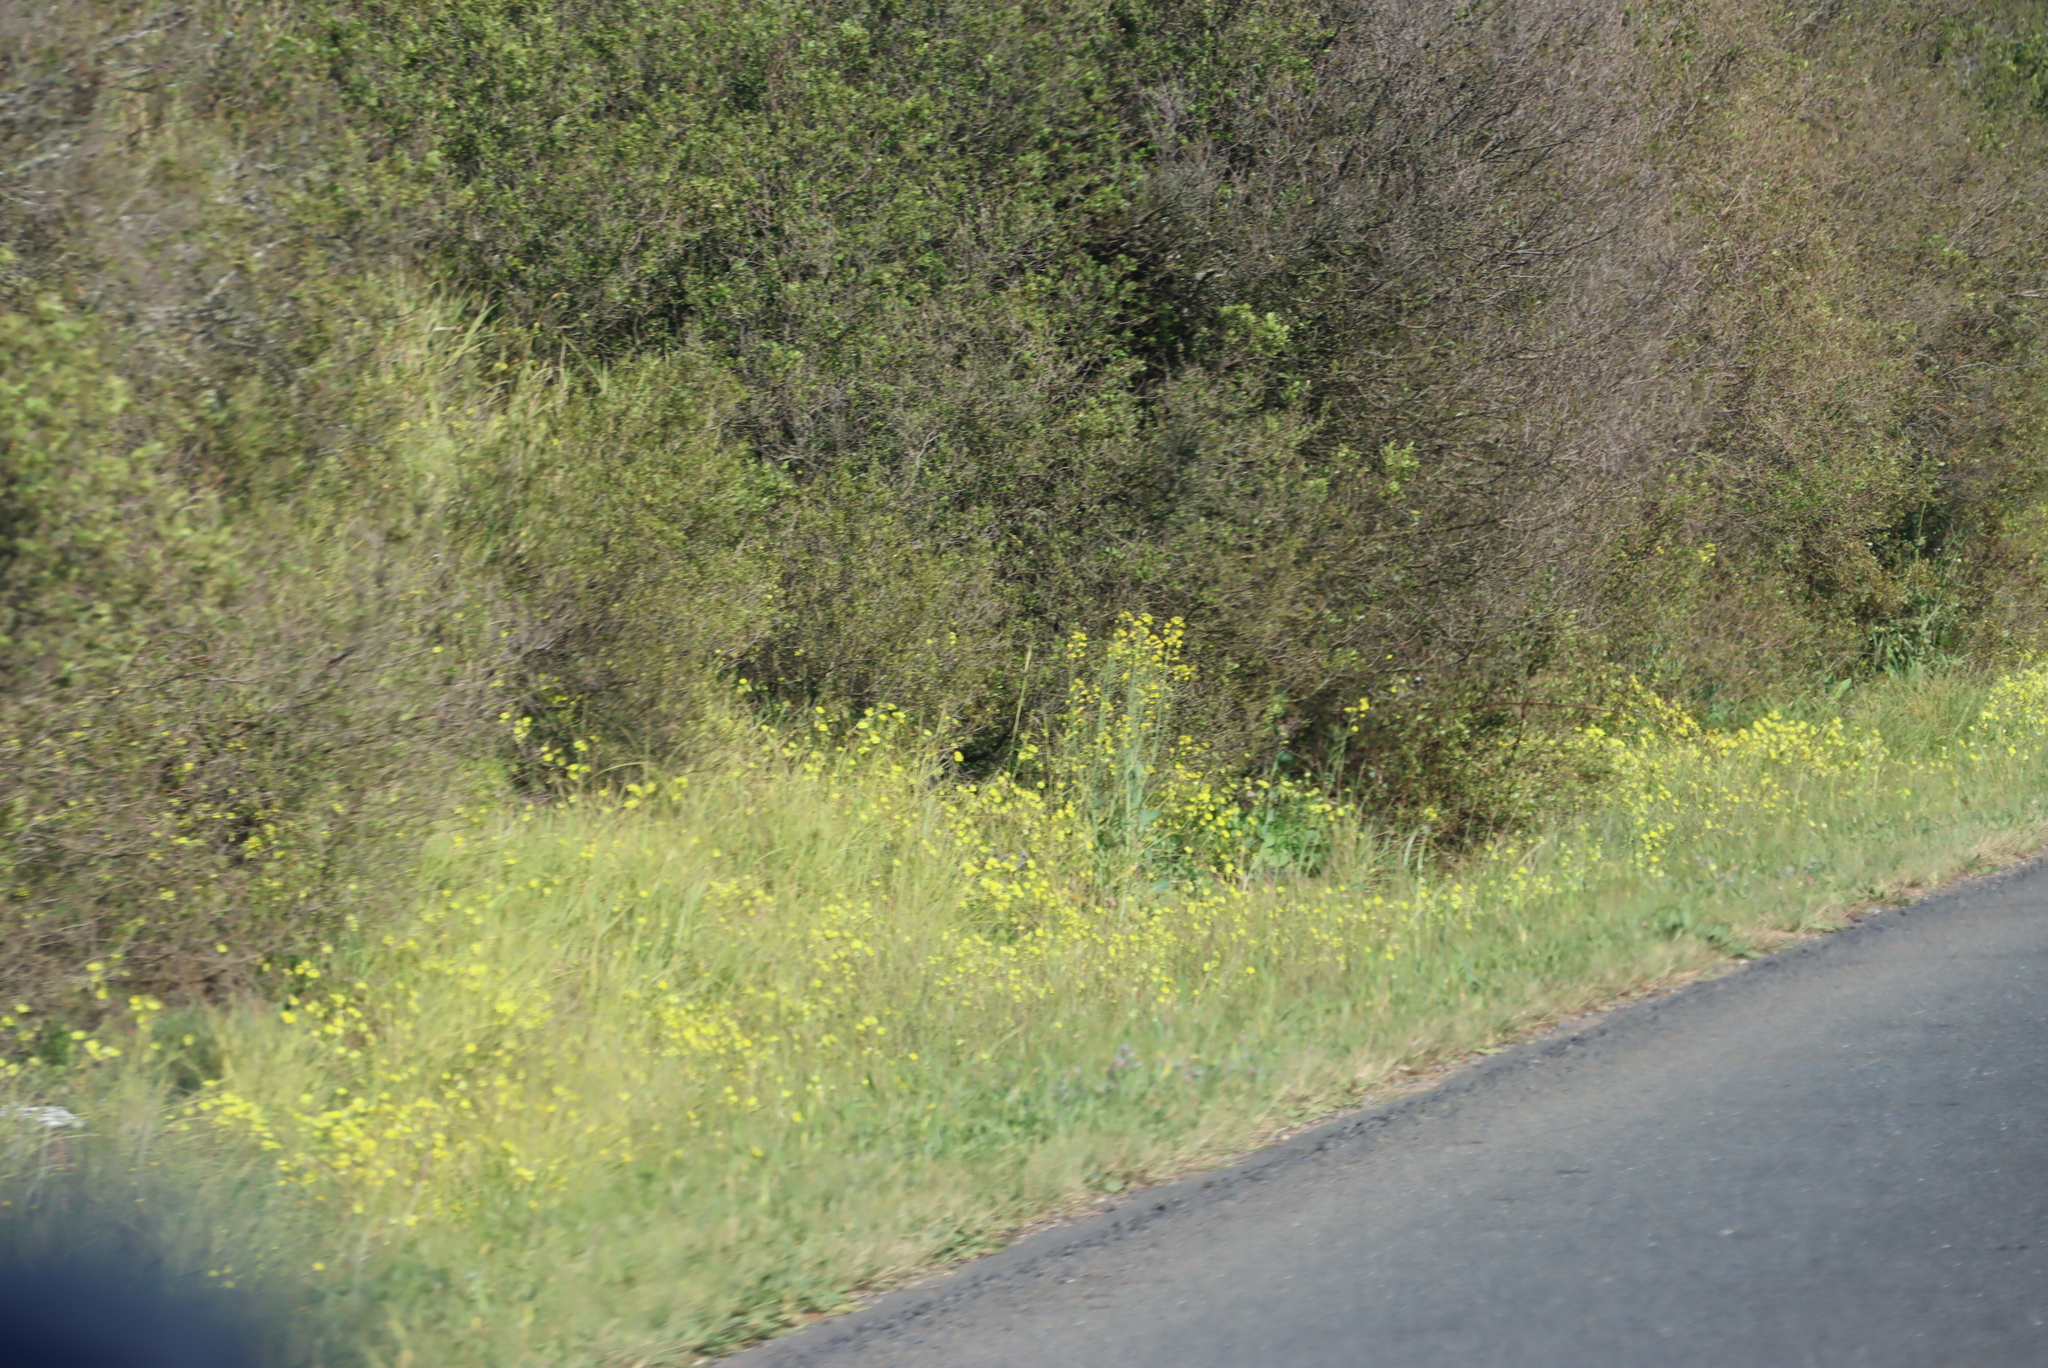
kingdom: Plantae
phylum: Tracheophyta
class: Magnoliopsida
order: Oxalidales
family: Oxalidaceae
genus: Oxalis
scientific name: Oxalis pes-caprae
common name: Bermuda-buttercup
